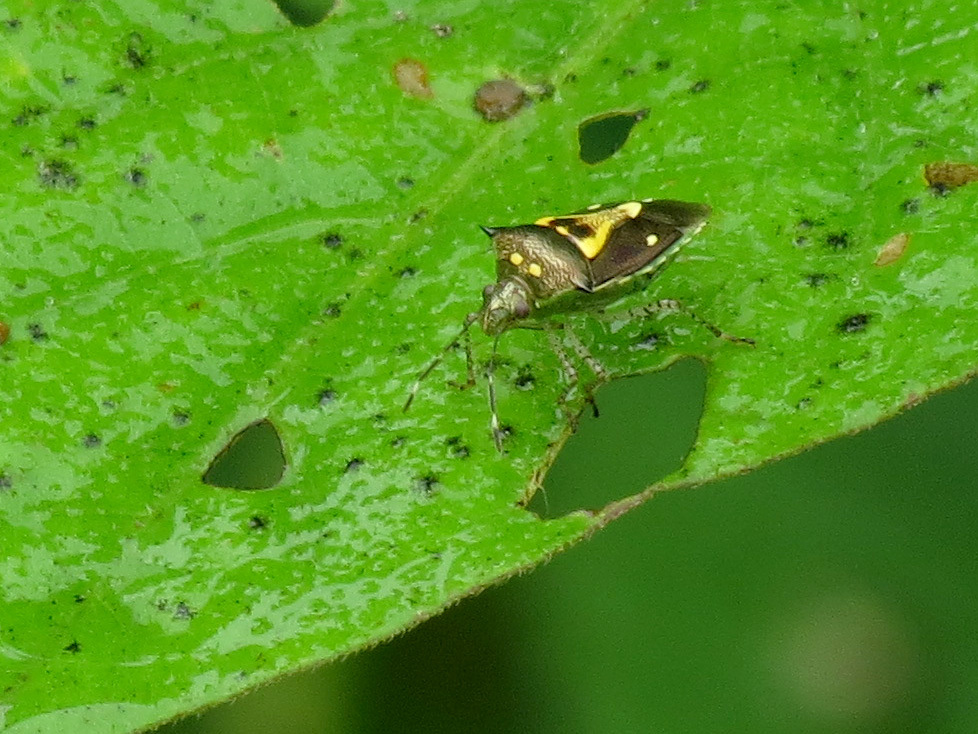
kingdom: Animalia
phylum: Arthropoda
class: Insecta
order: Hemiptera
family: Pentatomidae
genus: Mormidea
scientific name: Mormidea ypsilon
